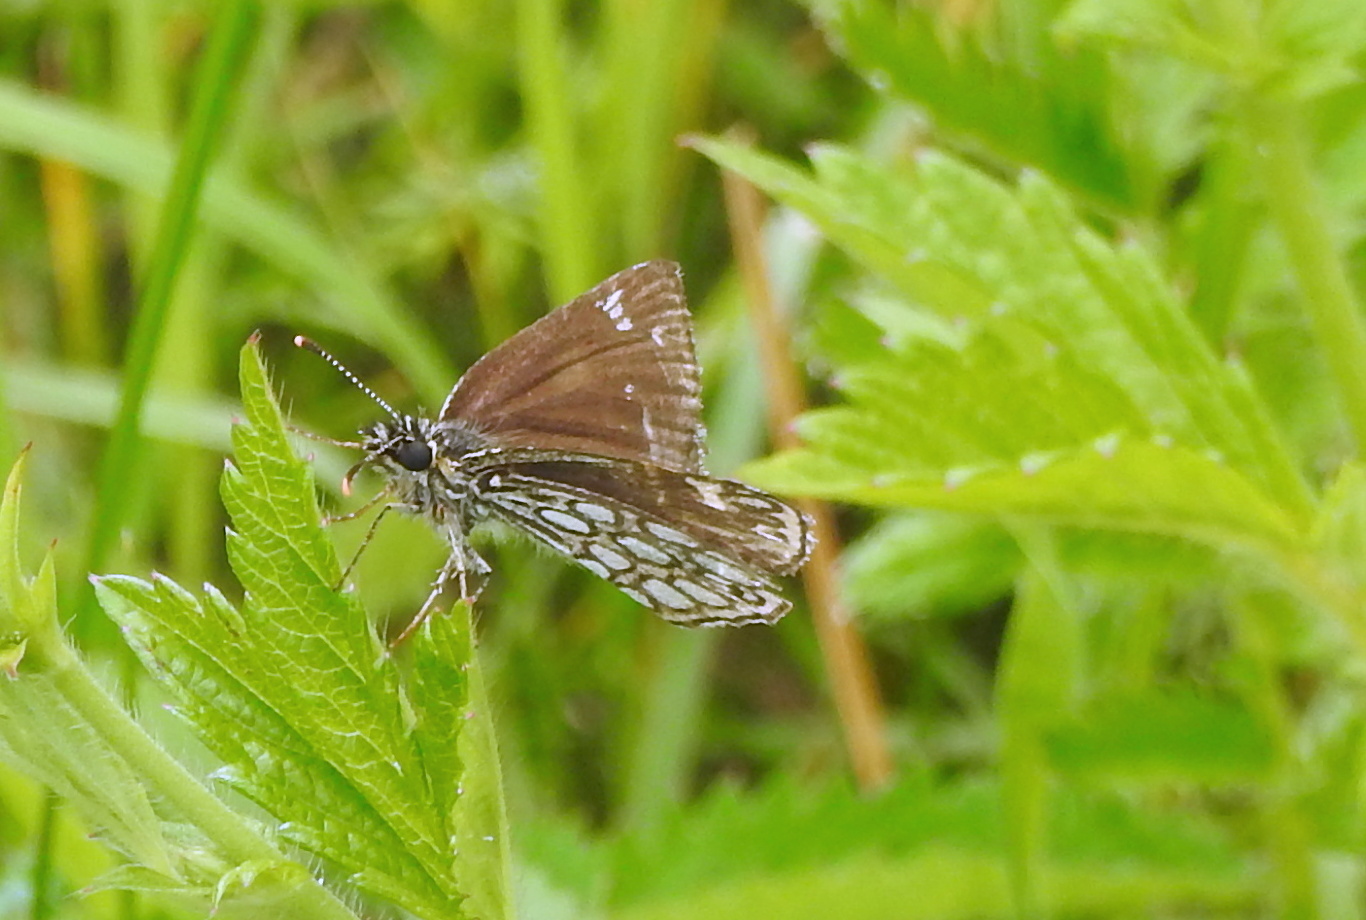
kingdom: Animalia
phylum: Arthropoda
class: Insecta
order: Lepidoptera
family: Hesperiidae
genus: Heteropterus
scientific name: Heteropterus morpheus
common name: Large chequered skipper
